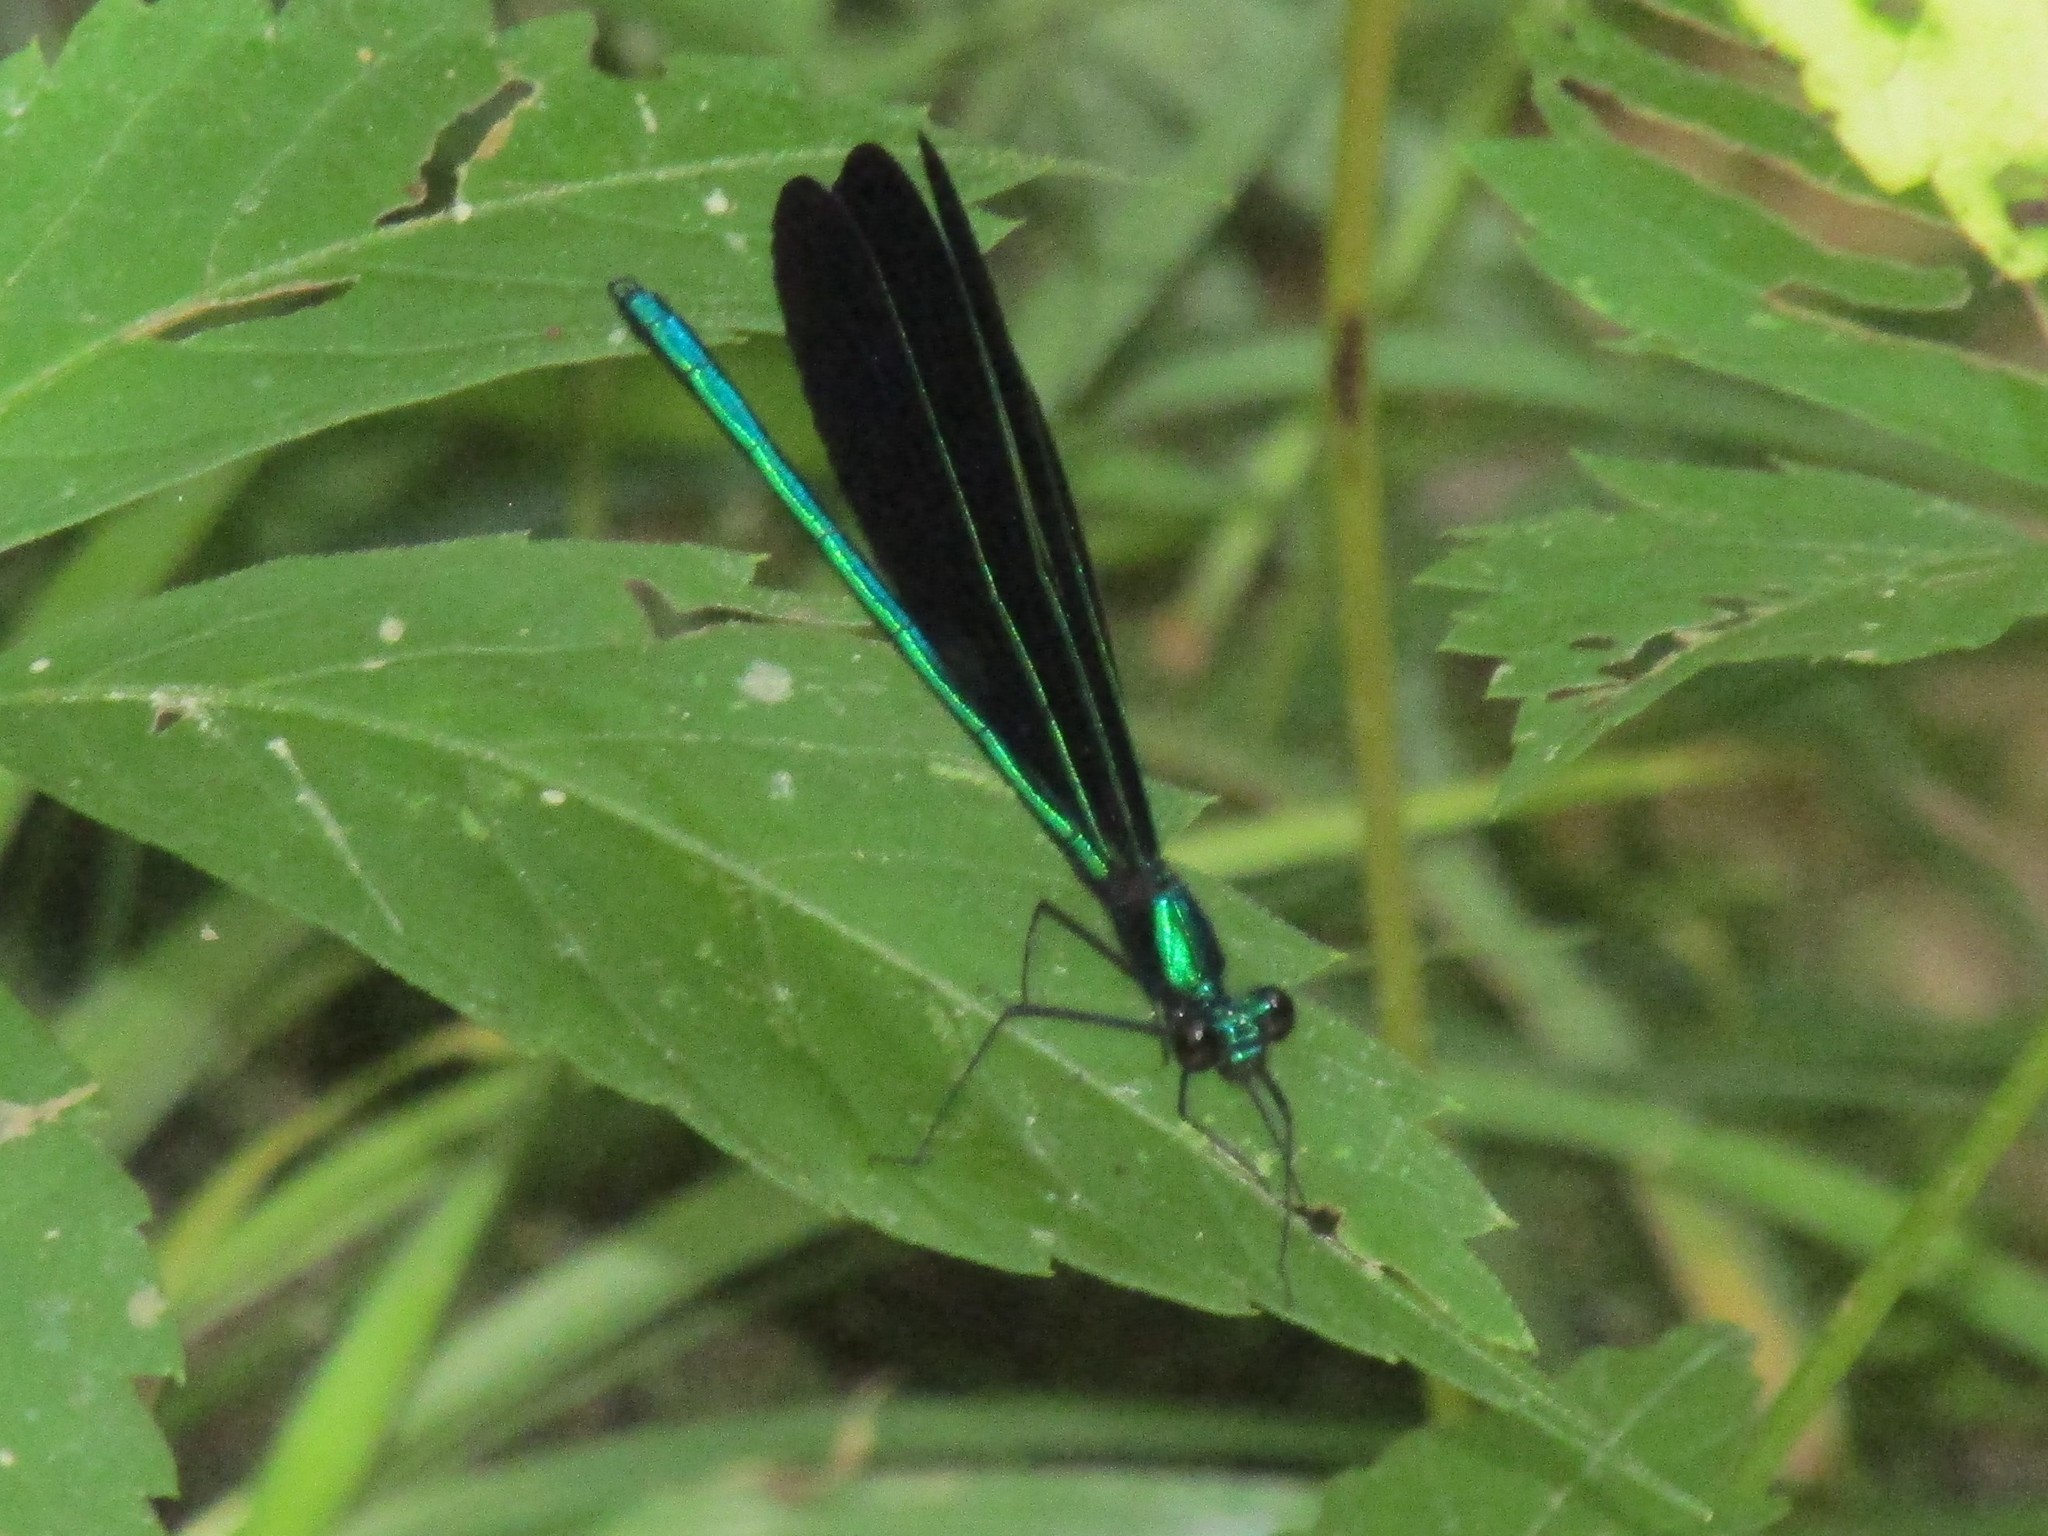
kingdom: Animalia
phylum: Arthropoda
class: Insecta
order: Odonata
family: Calopterygidae
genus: Calopteryx
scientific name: Calopteryx maculata
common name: Ebony jewelwing
